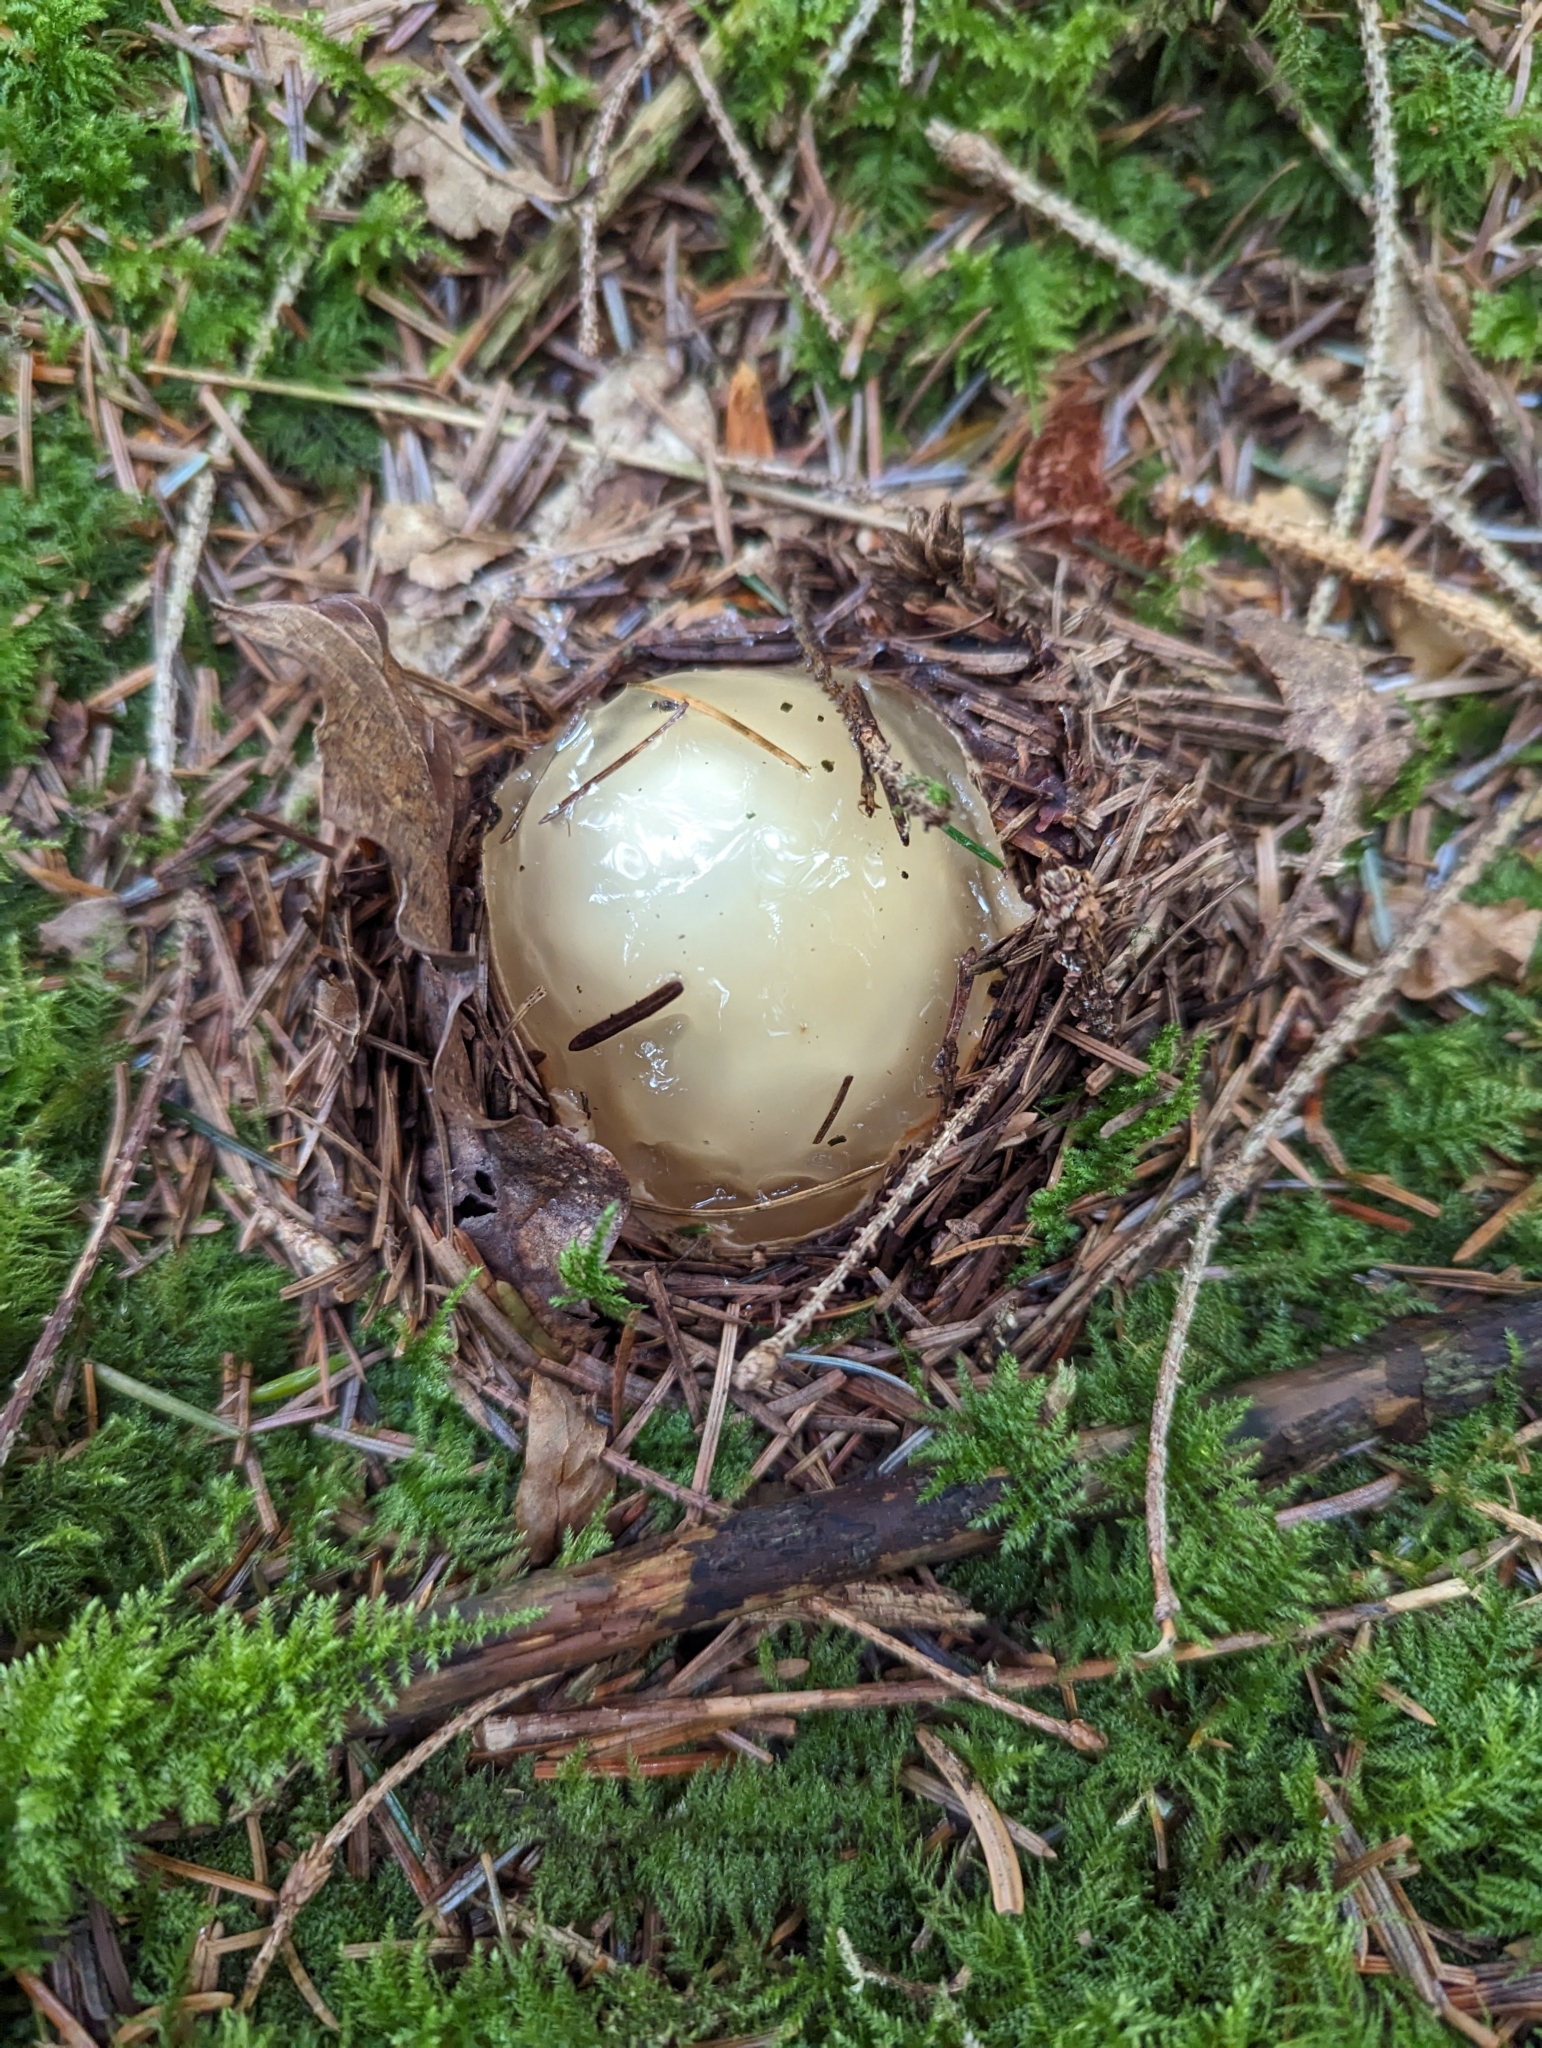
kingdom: Fungi
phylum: Basidiomycota
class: Agaricomycetes
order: Phallales
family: Phallaceae
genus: Phallus
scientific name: Phallus impudicus
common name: Common stinkhorn
